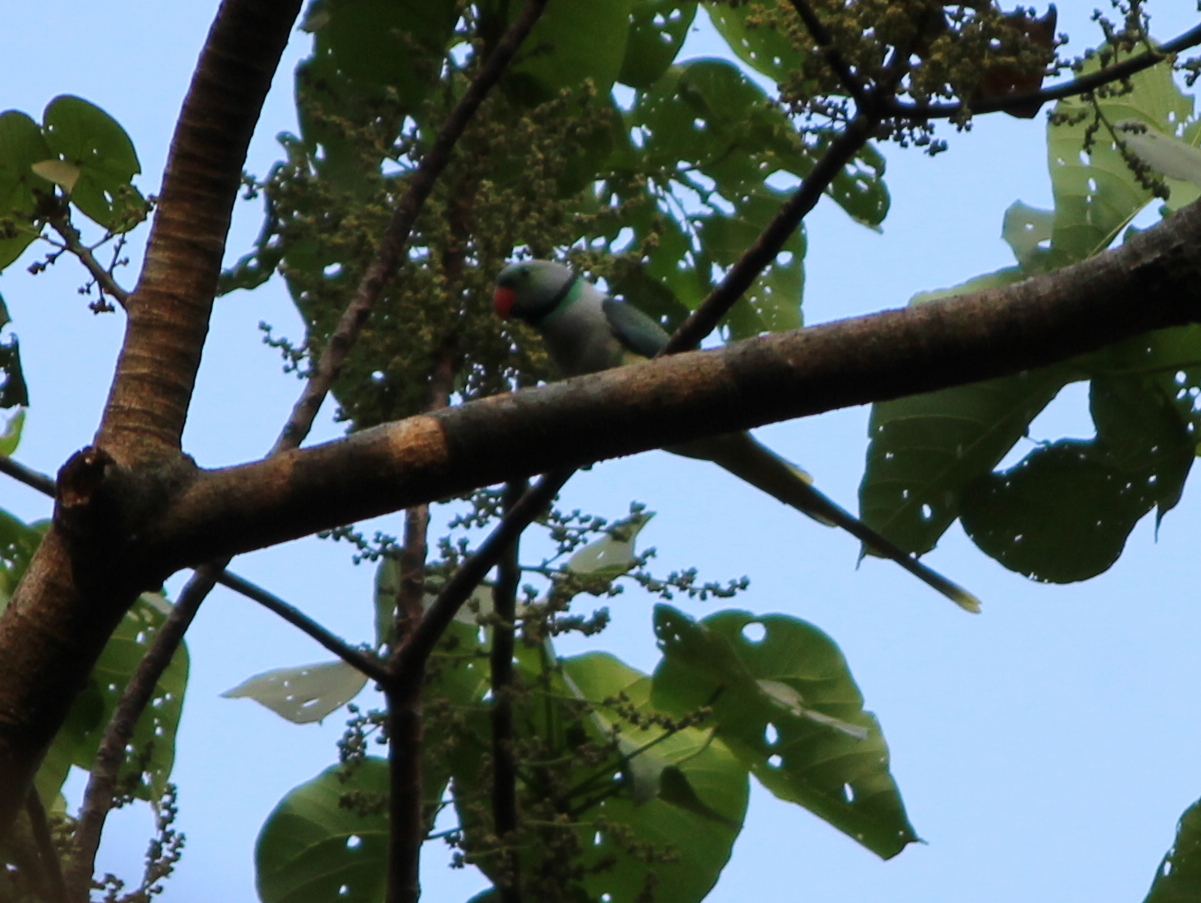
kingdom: Animalia
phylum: Chordata
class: Aves
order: Psittaciformes
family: Psittacidae
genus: Psittacula
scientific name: Psittacula columboides
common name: Blue-winged parakeet
